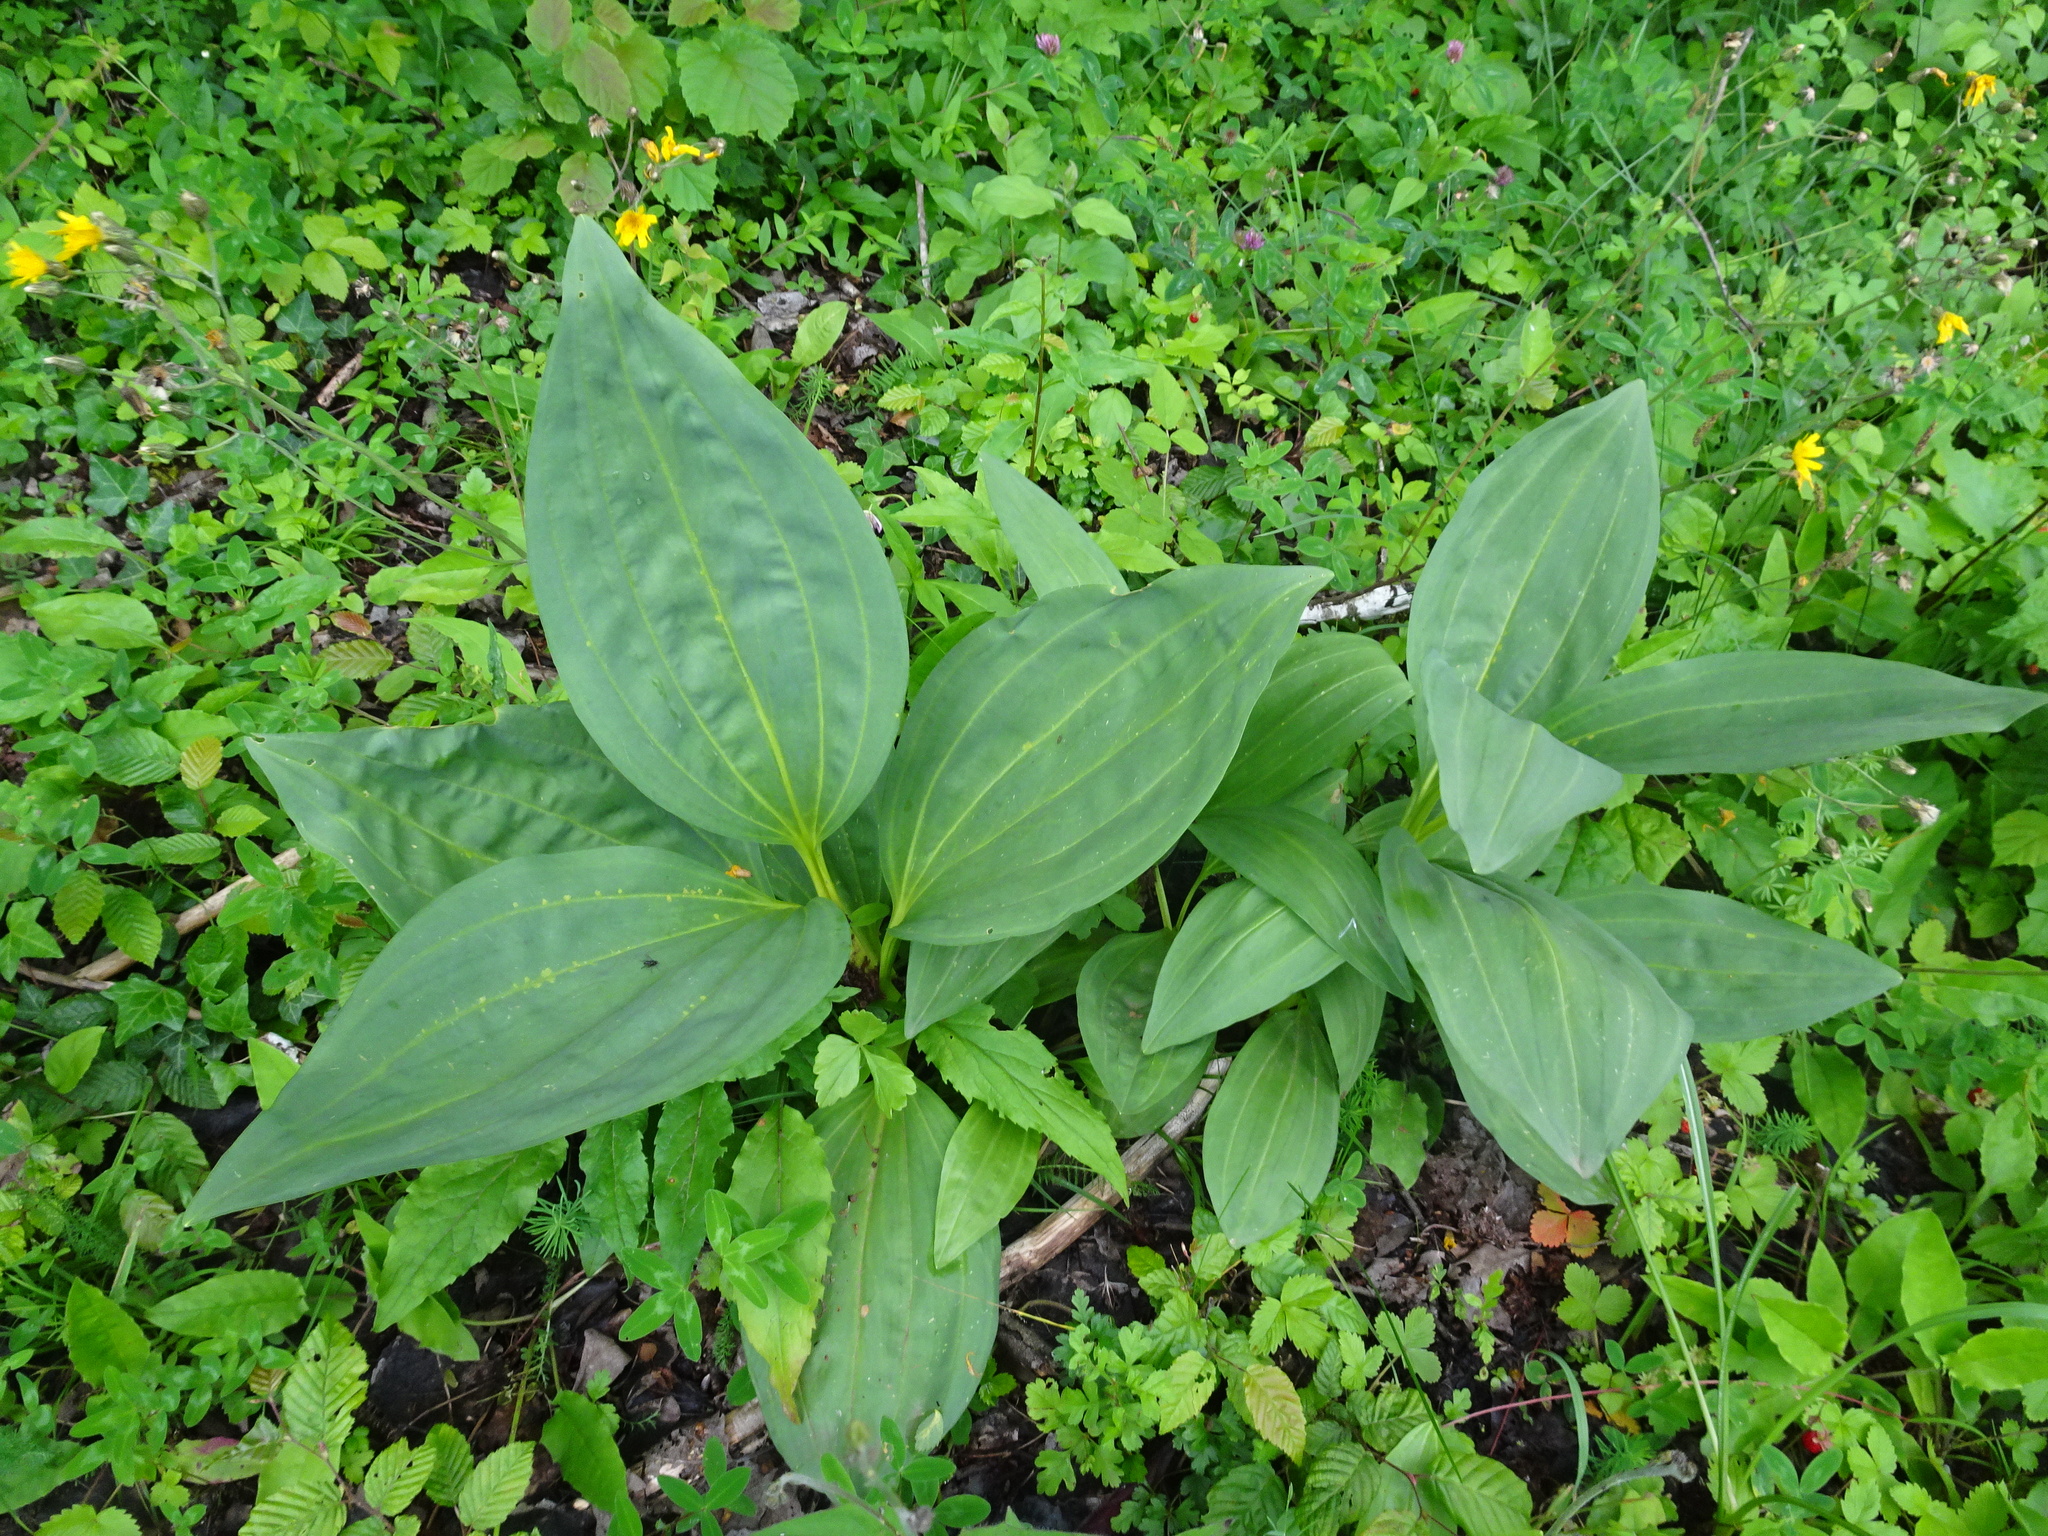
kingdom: Plantae
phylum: Tracheophyta
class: Magnoliopsida
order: Gentianales
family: Gentianaceae
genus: Gentiana
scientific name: Gentiana lutea
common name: Great yellow gentian
